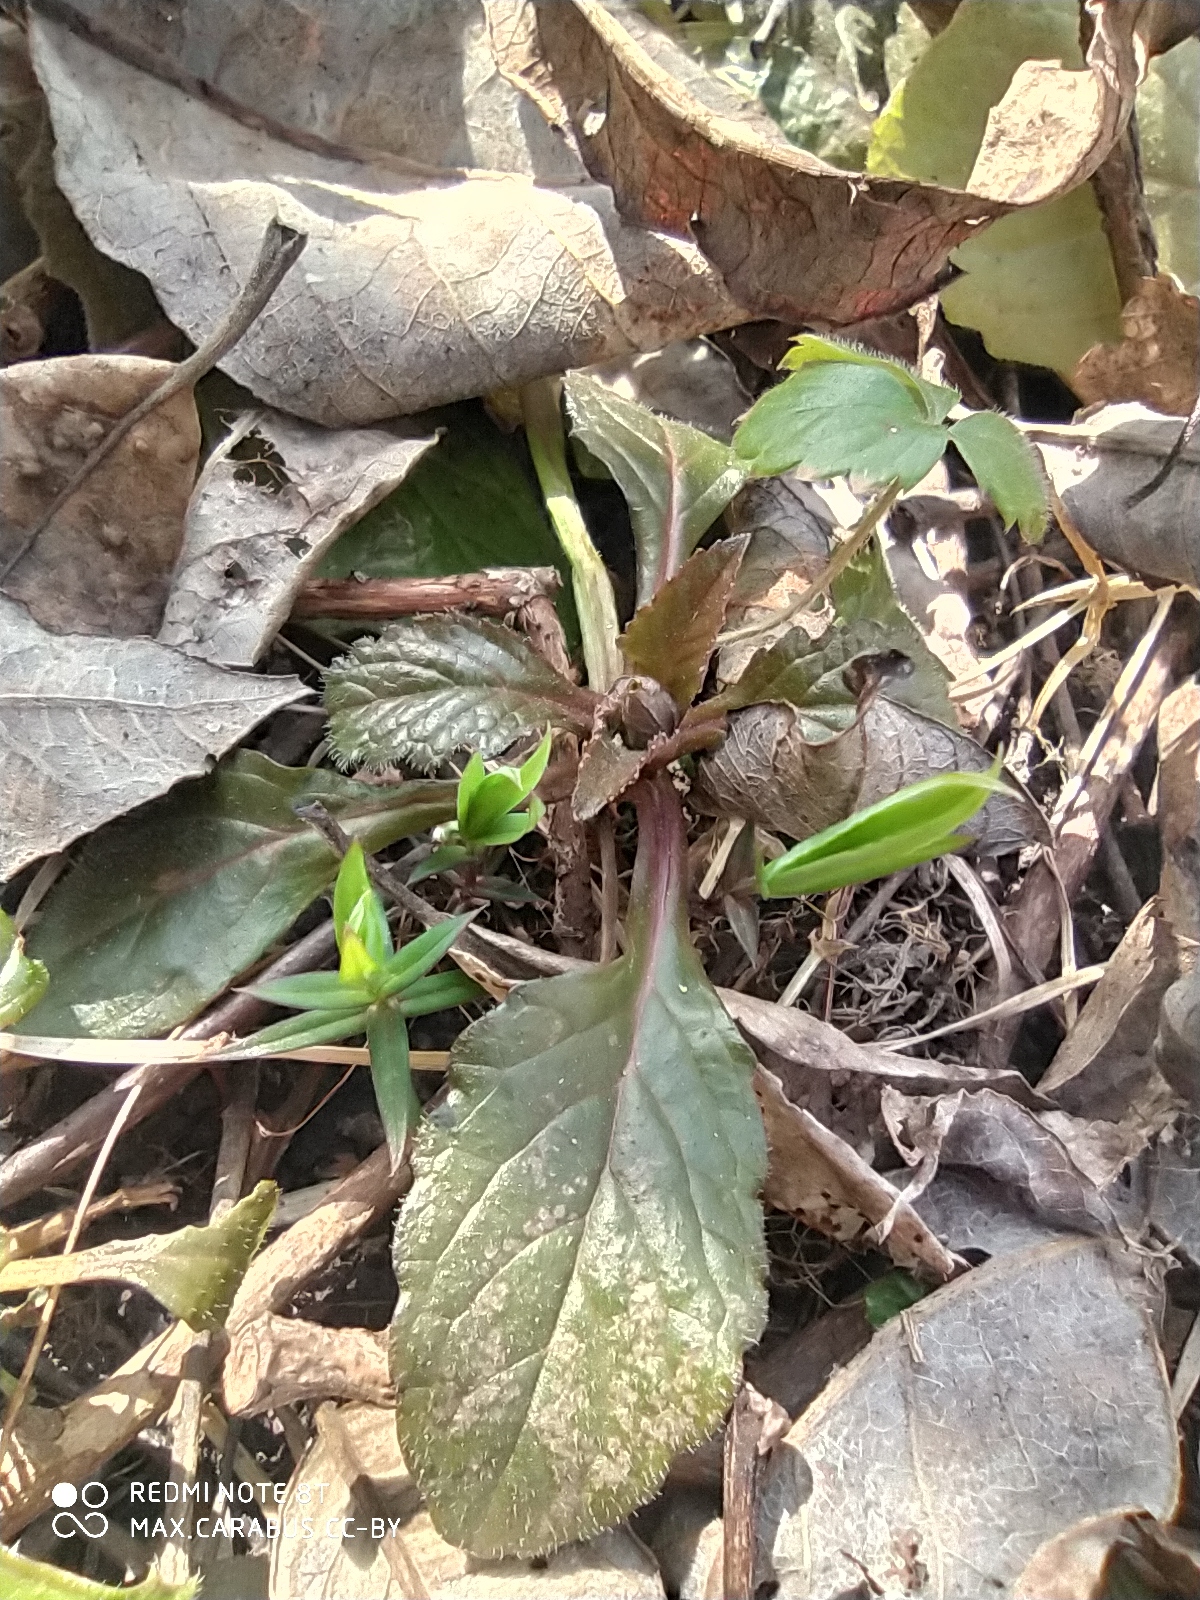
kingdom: Plantae
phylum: Tracheophyta
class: Magnoliopsida
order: Lamiales
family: Lamiaceae
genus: Ajuga
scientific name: Ajuga reptans
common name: Bugle
